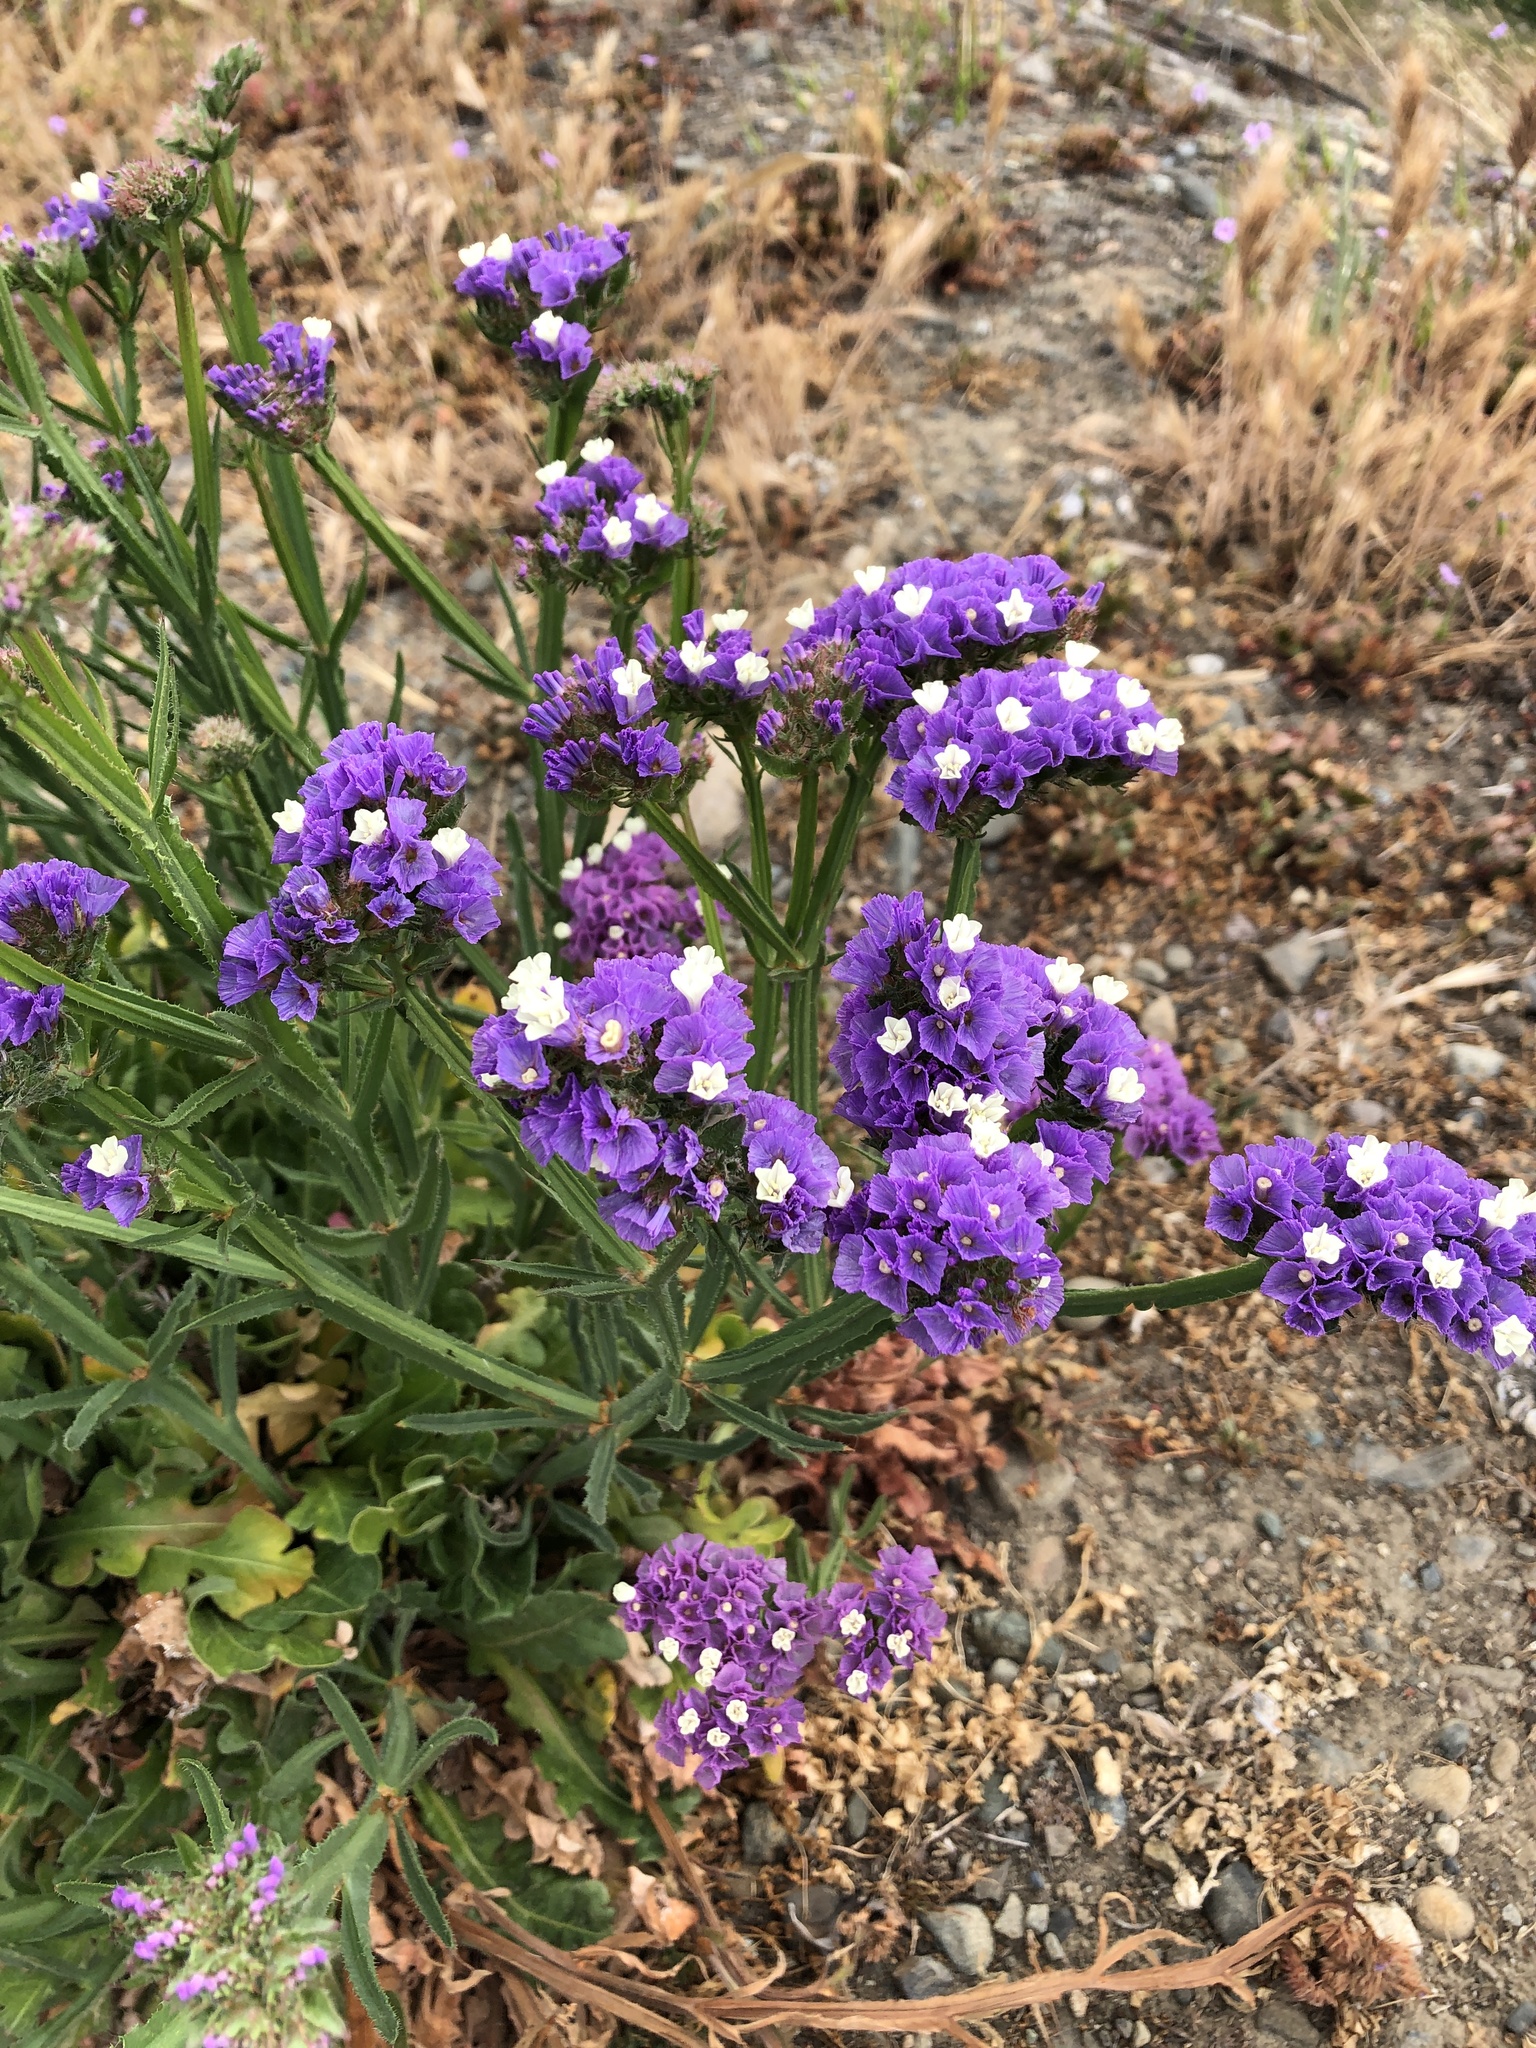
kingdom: Plantae
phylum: Tracheophyta
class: Magnoliopsida
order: Caryophyllales
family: Plumbaginaceae
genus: Limonium
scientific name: Limonium sinuatum
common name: Statice
